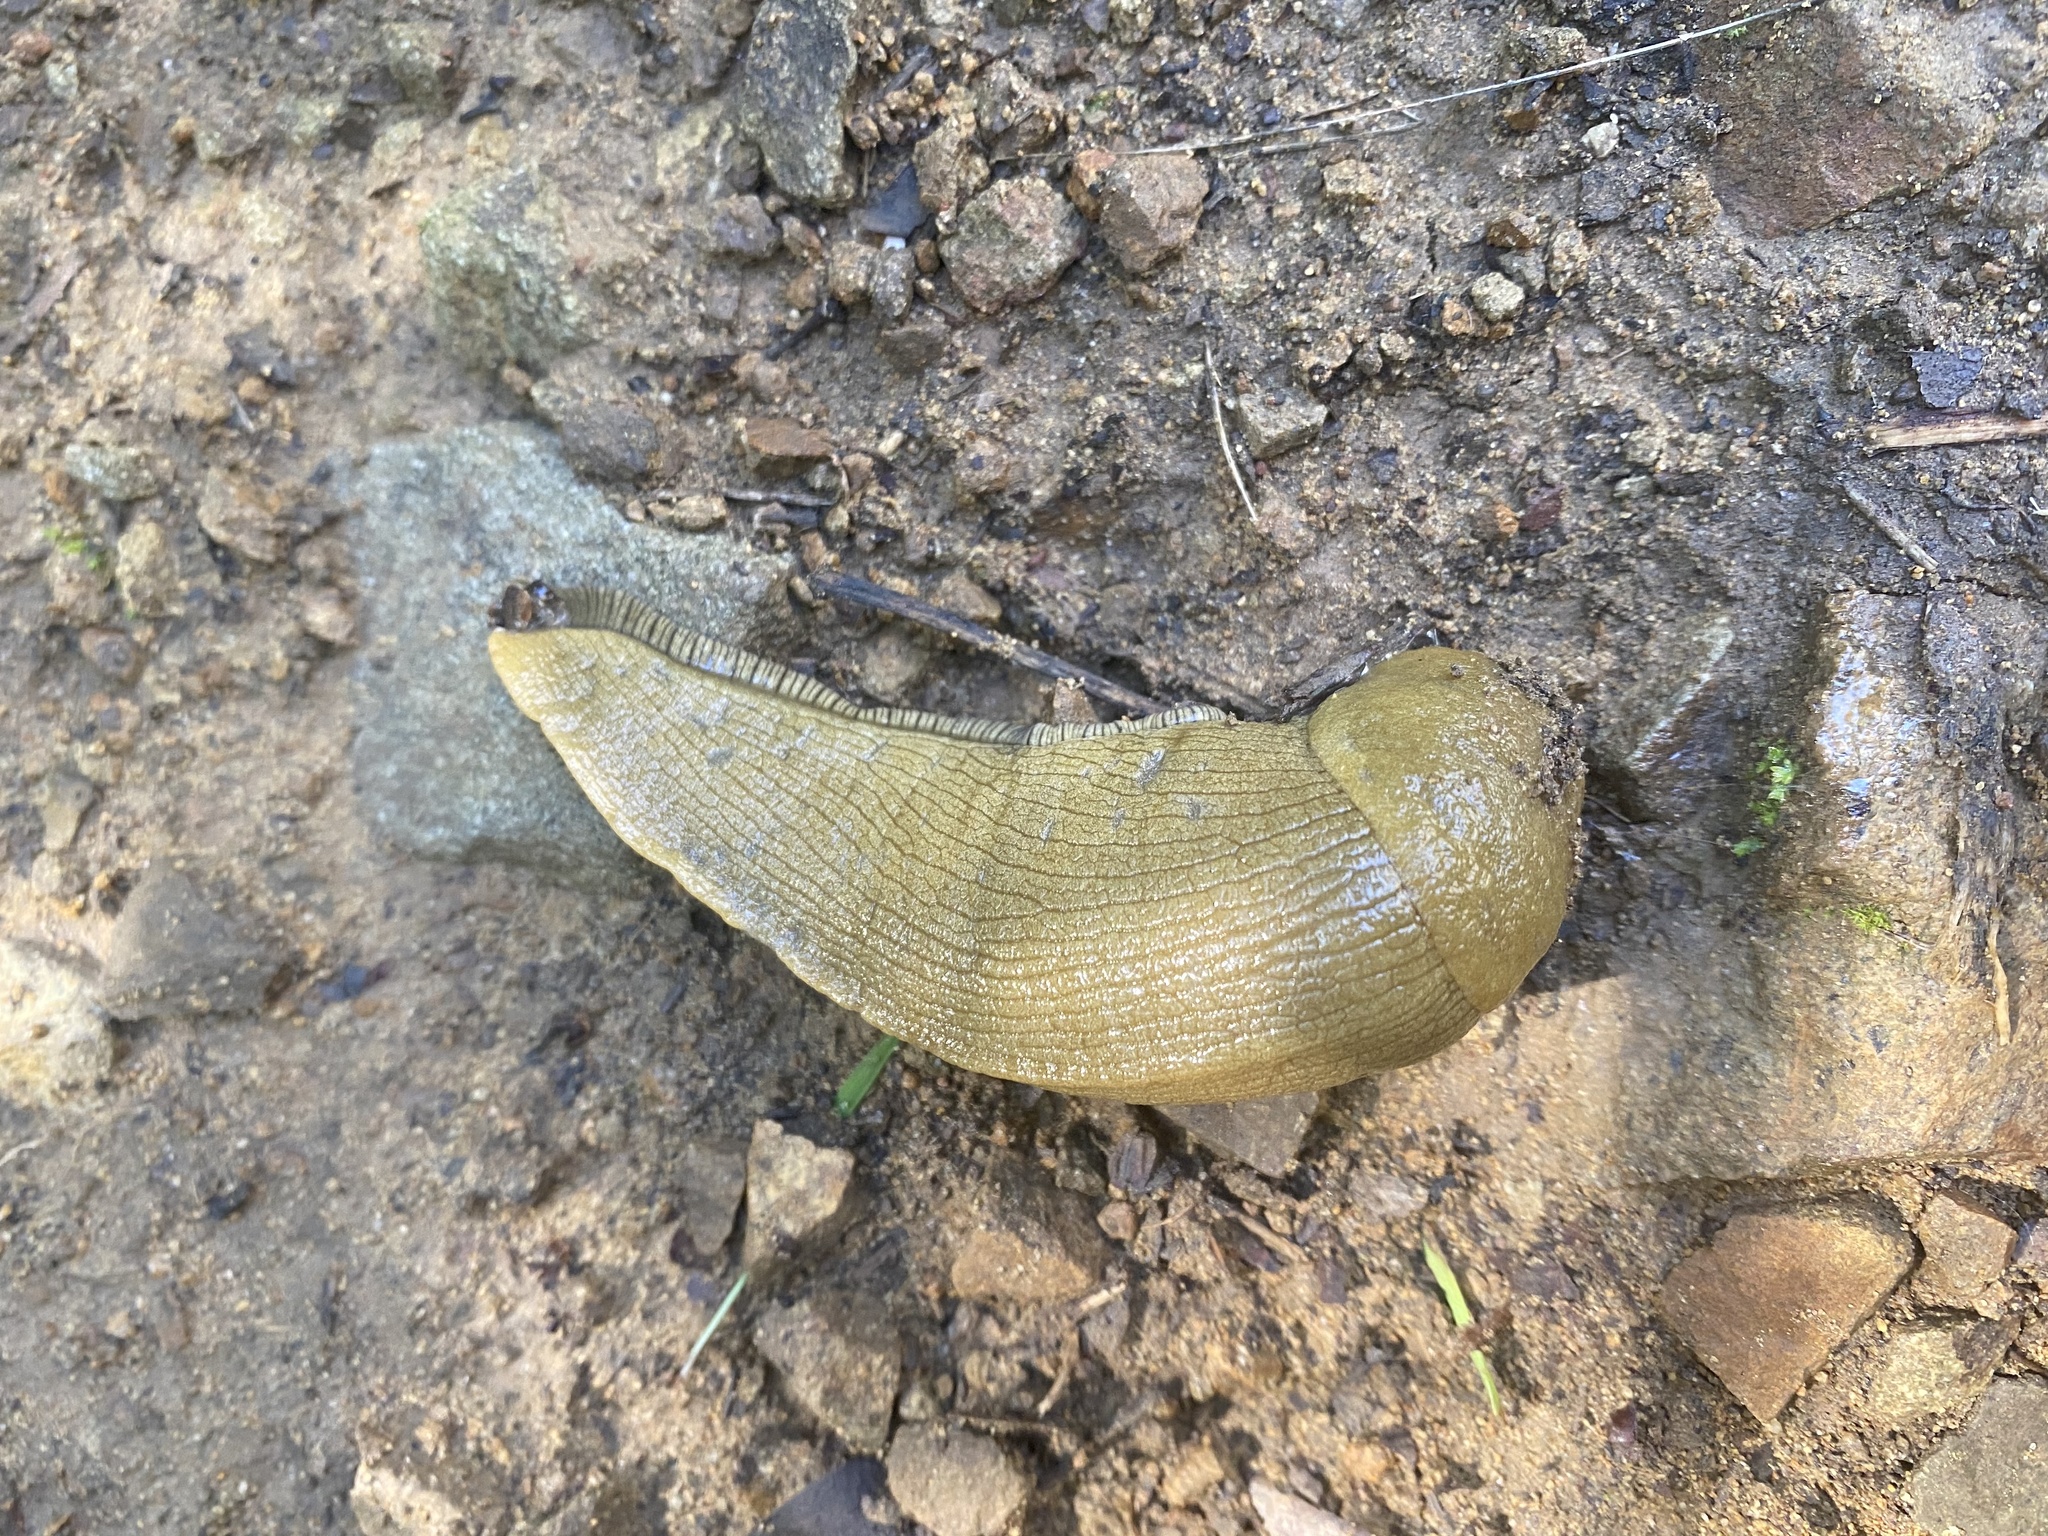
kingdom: Animalia
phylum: Mollusca
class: Gastropoda
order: Stylommatophora
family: Ariolimacidae
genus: Ariolimax
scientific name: Ariolimax buttoni
